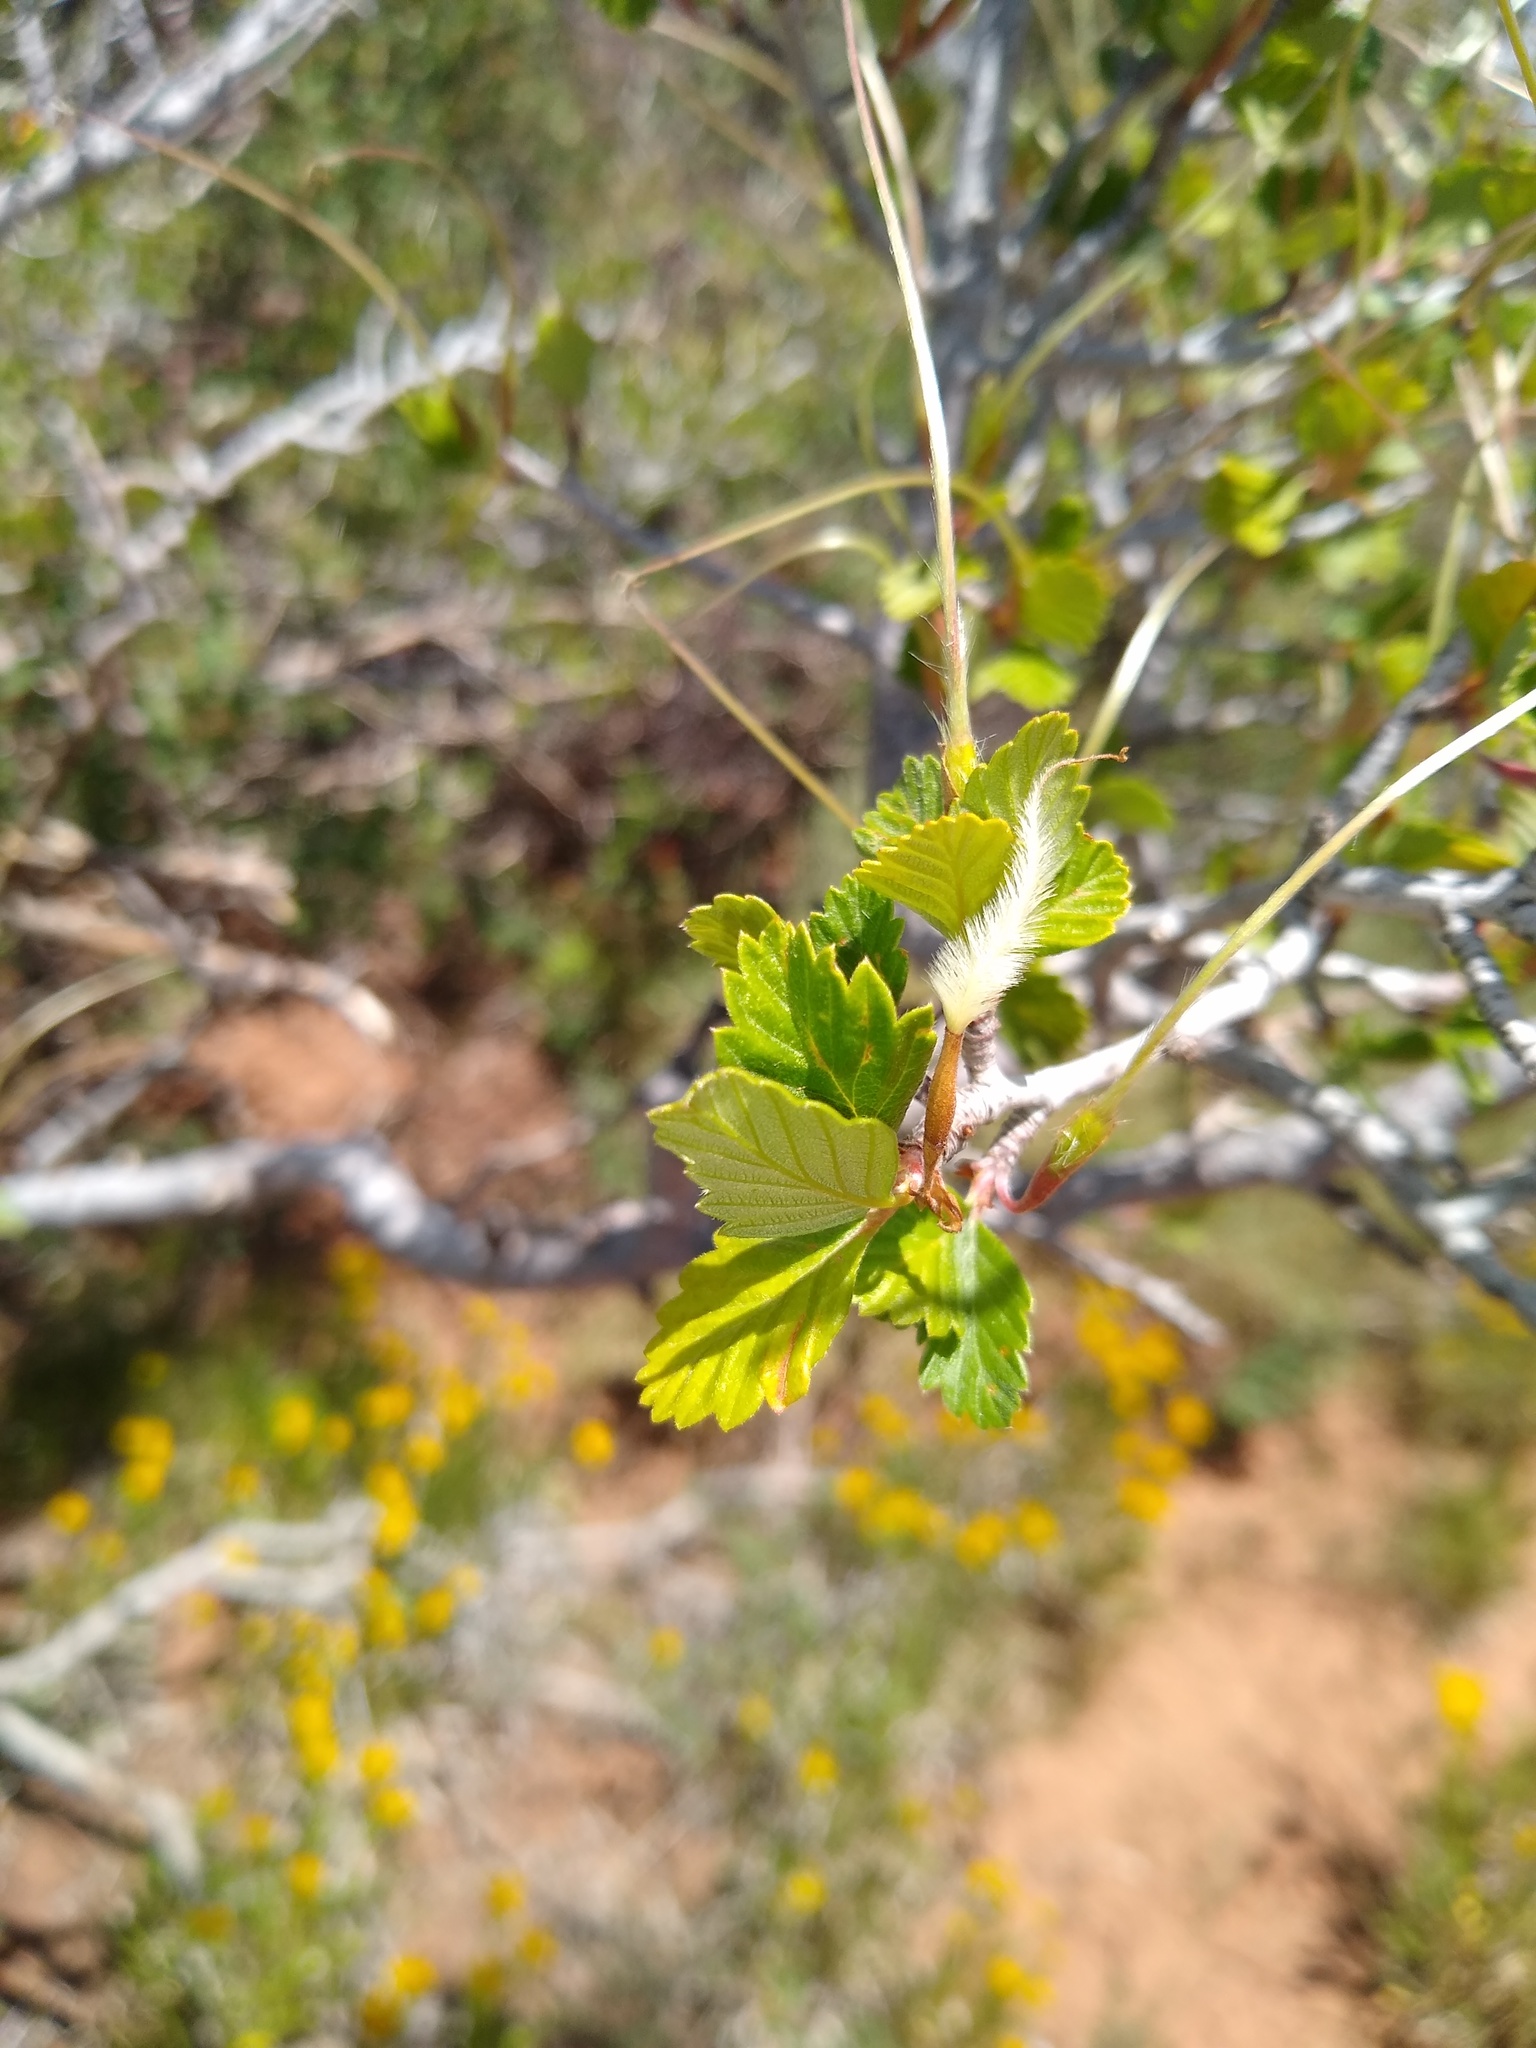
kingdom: Plantae
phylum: Tracheophyta
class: Magnoliopsida
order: Rosales
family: Rosaceae
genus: Cercocarpus
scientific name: Cercocarpus montanus
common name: Alder-leaf cercocarpus
